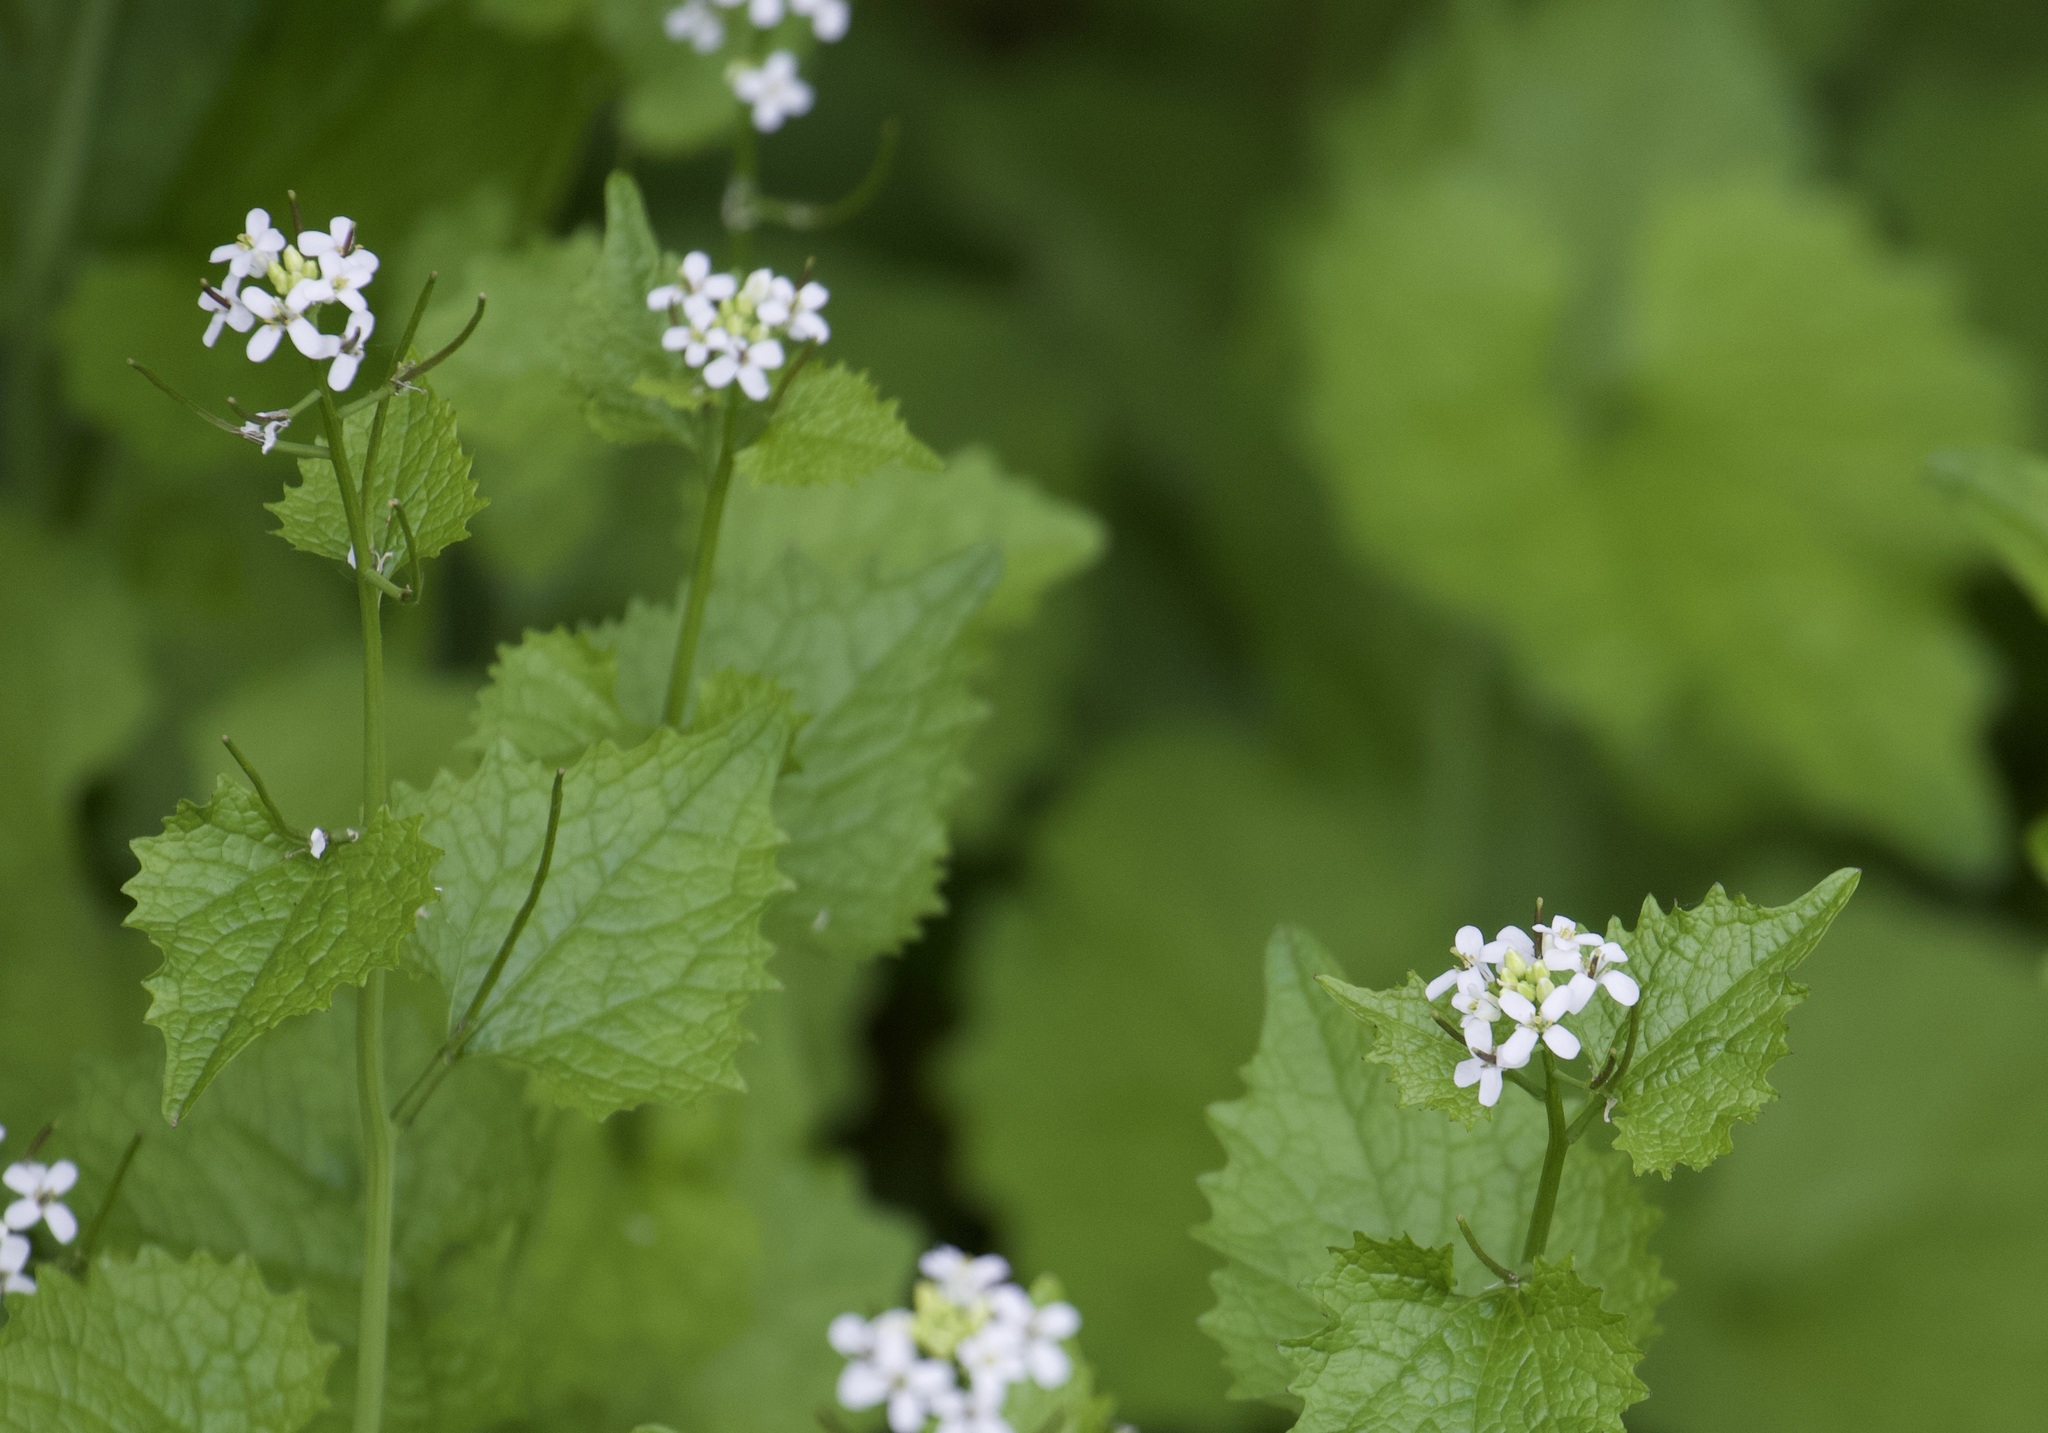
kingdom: Plantae
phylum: Tracheophyta
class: Magnoliopsida
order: Brassicales
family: Brassicaceae
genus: Alliaria
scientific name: Alliaria petiolata
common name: Garlic mustard
